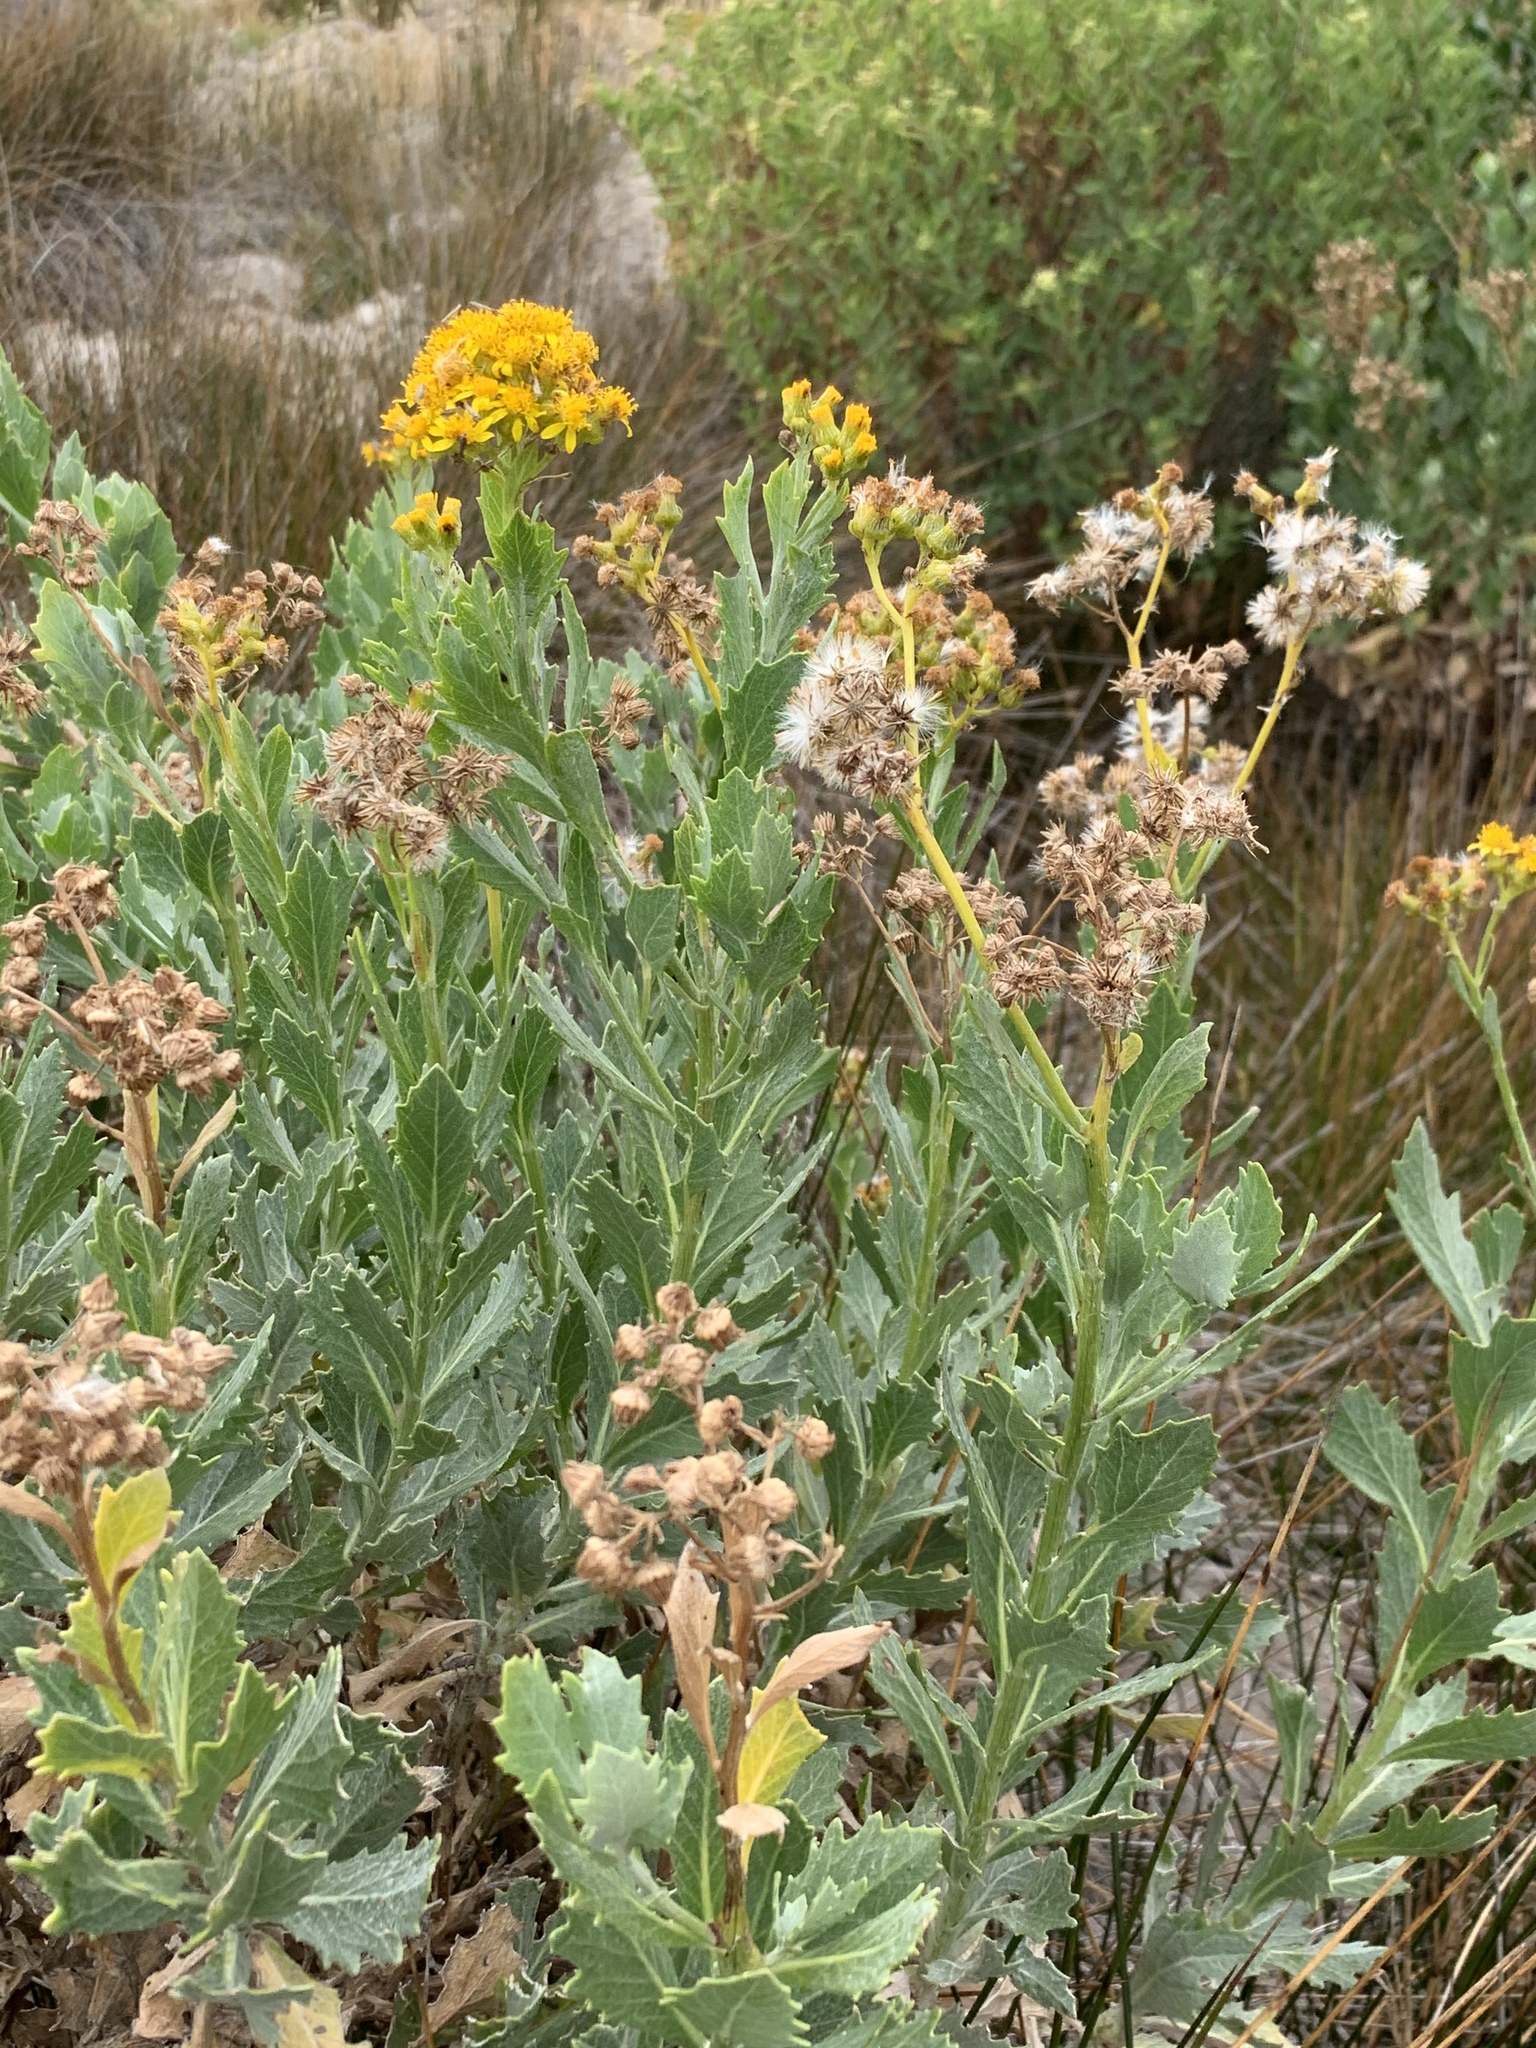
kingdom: Plantae
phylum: Tracheophyta
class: Magnoliopsida
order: Asterales
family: Asteraceae
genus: Senecio
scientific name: Senecio halimifolius
